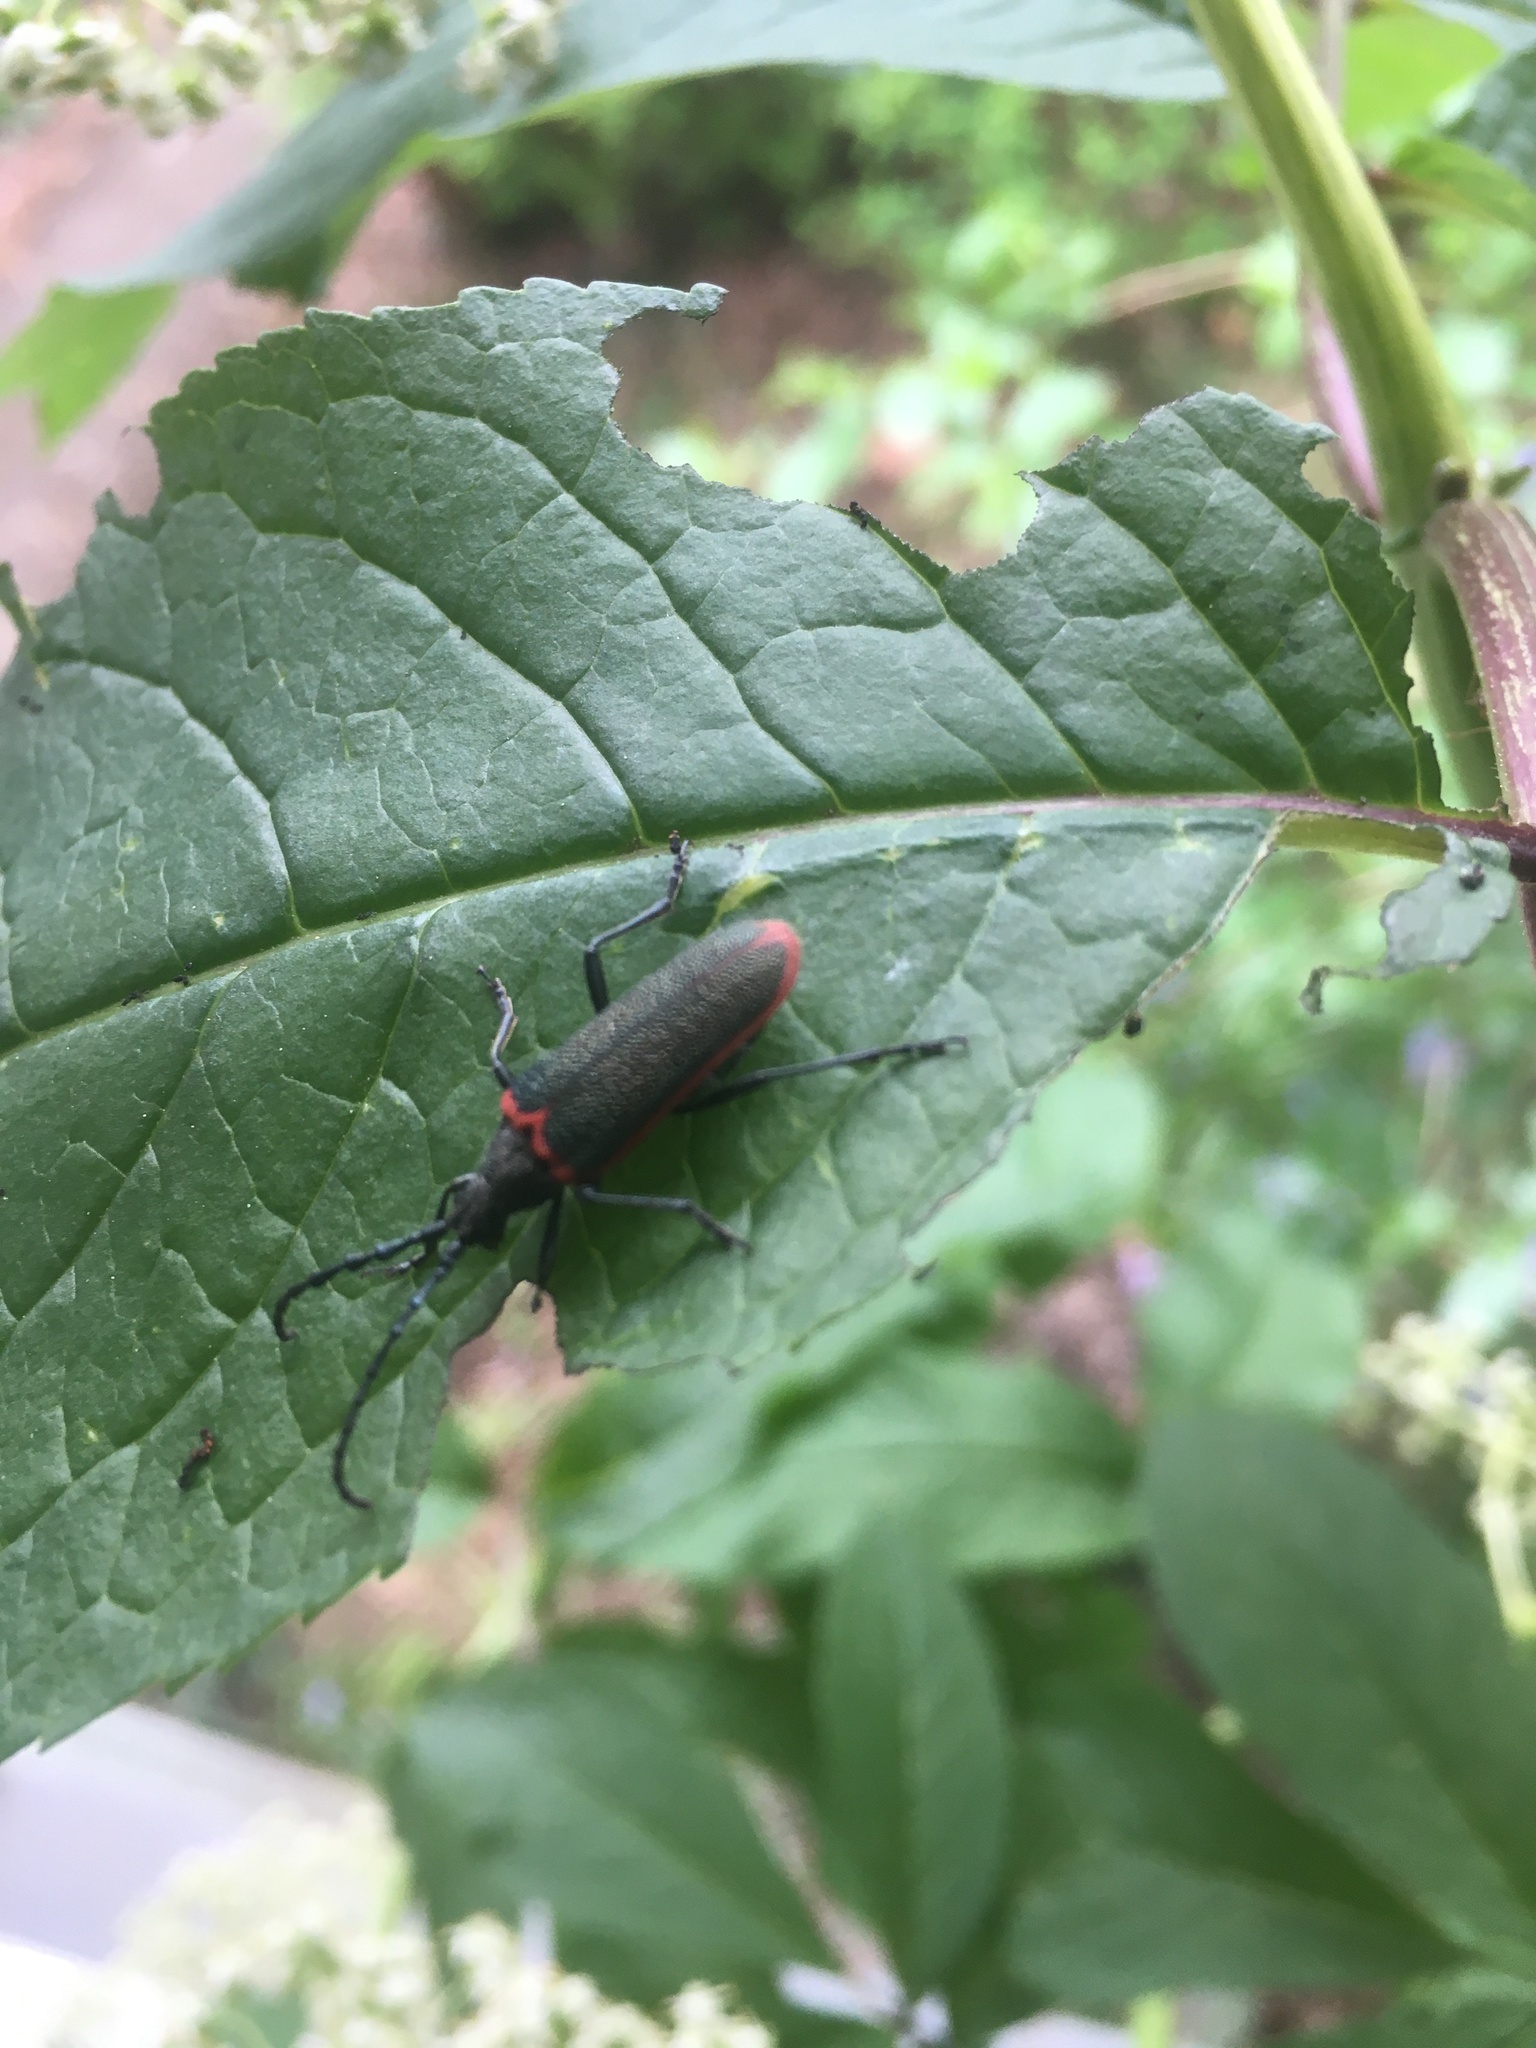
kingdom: Animalia
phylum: Arthropoda
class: Insecta
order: Coleoptera
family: Cerambycidae
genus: Desmocerus
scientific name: Desmocerus aureipennis
